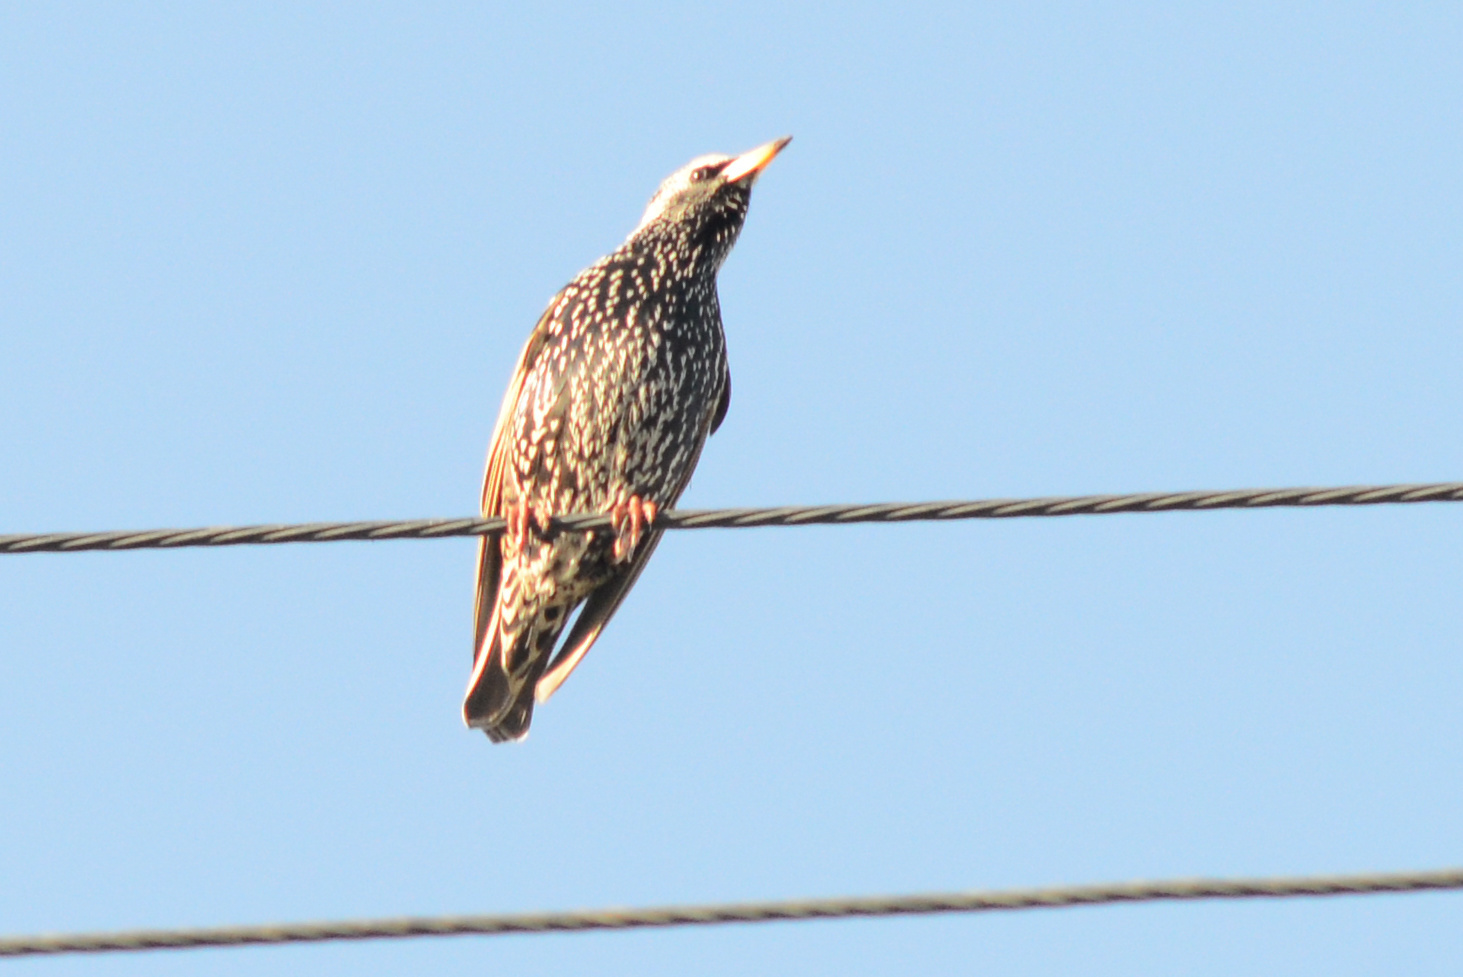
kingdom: Animalia
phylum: Chordata
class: Aves
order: Passeriformes
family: Sturnidae
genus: Sturnus
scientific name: Sturnus vulgaris
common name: Common starling
